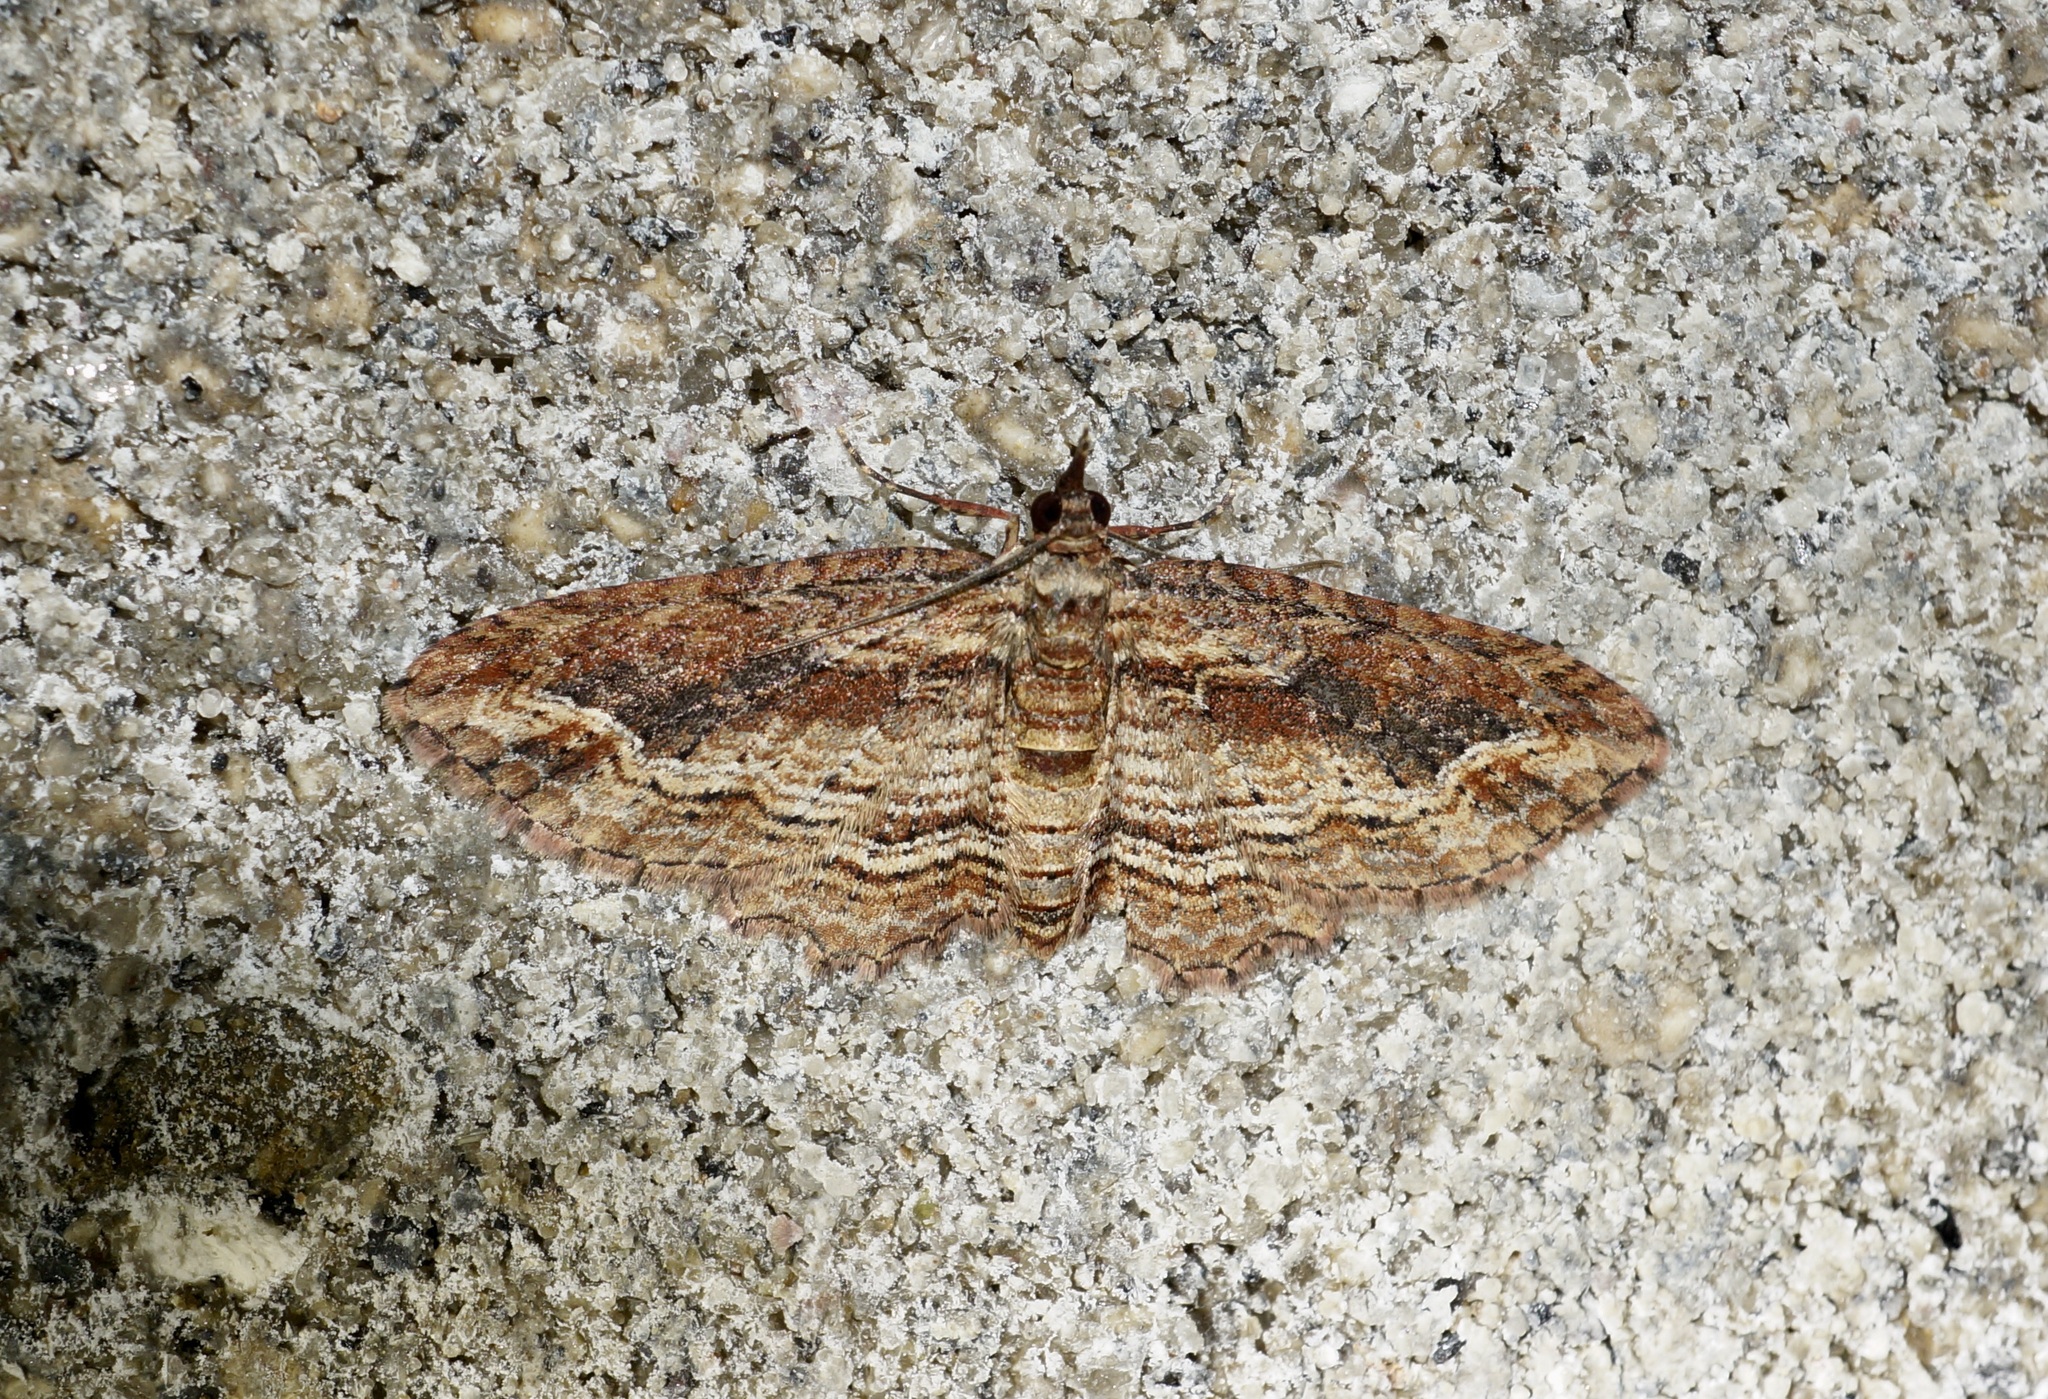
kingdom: Animalia
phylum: Arthropoda
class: Insecta
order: Lepidoptera
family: Geometridae
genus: Chloroclystis
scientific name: Chloroclystis filata
